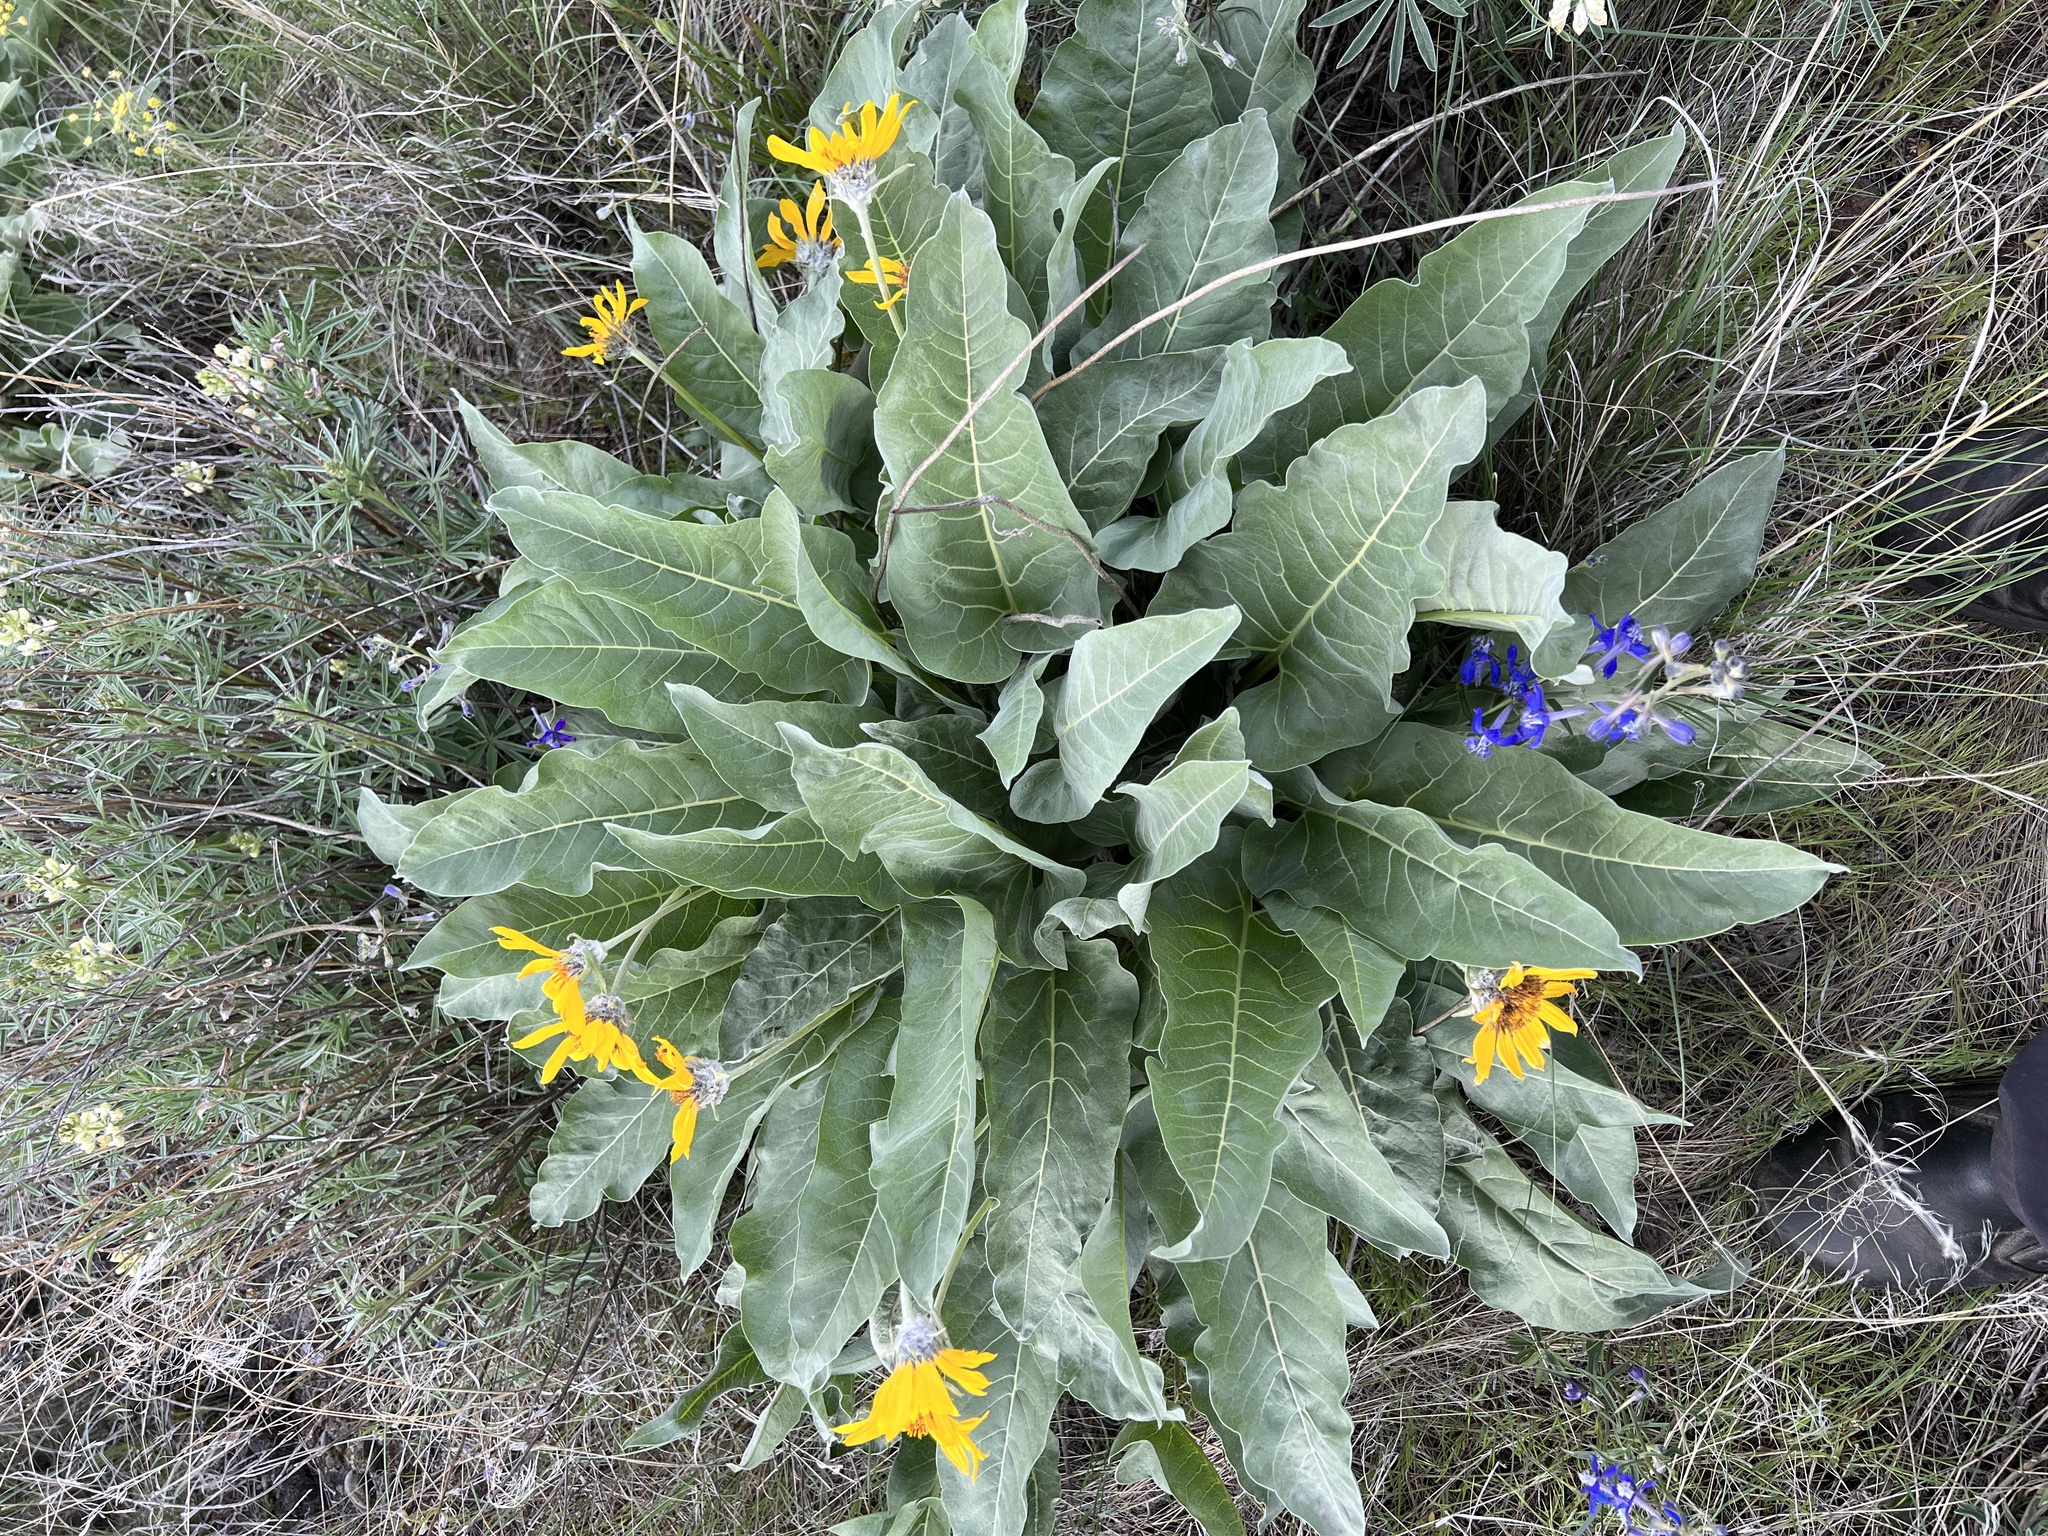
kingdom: Plantae
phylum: Tracheophyta
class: Magnoliopsida
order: Asterales
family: Asteraceae
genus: Wyethia
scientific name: Wyethia sagittata
